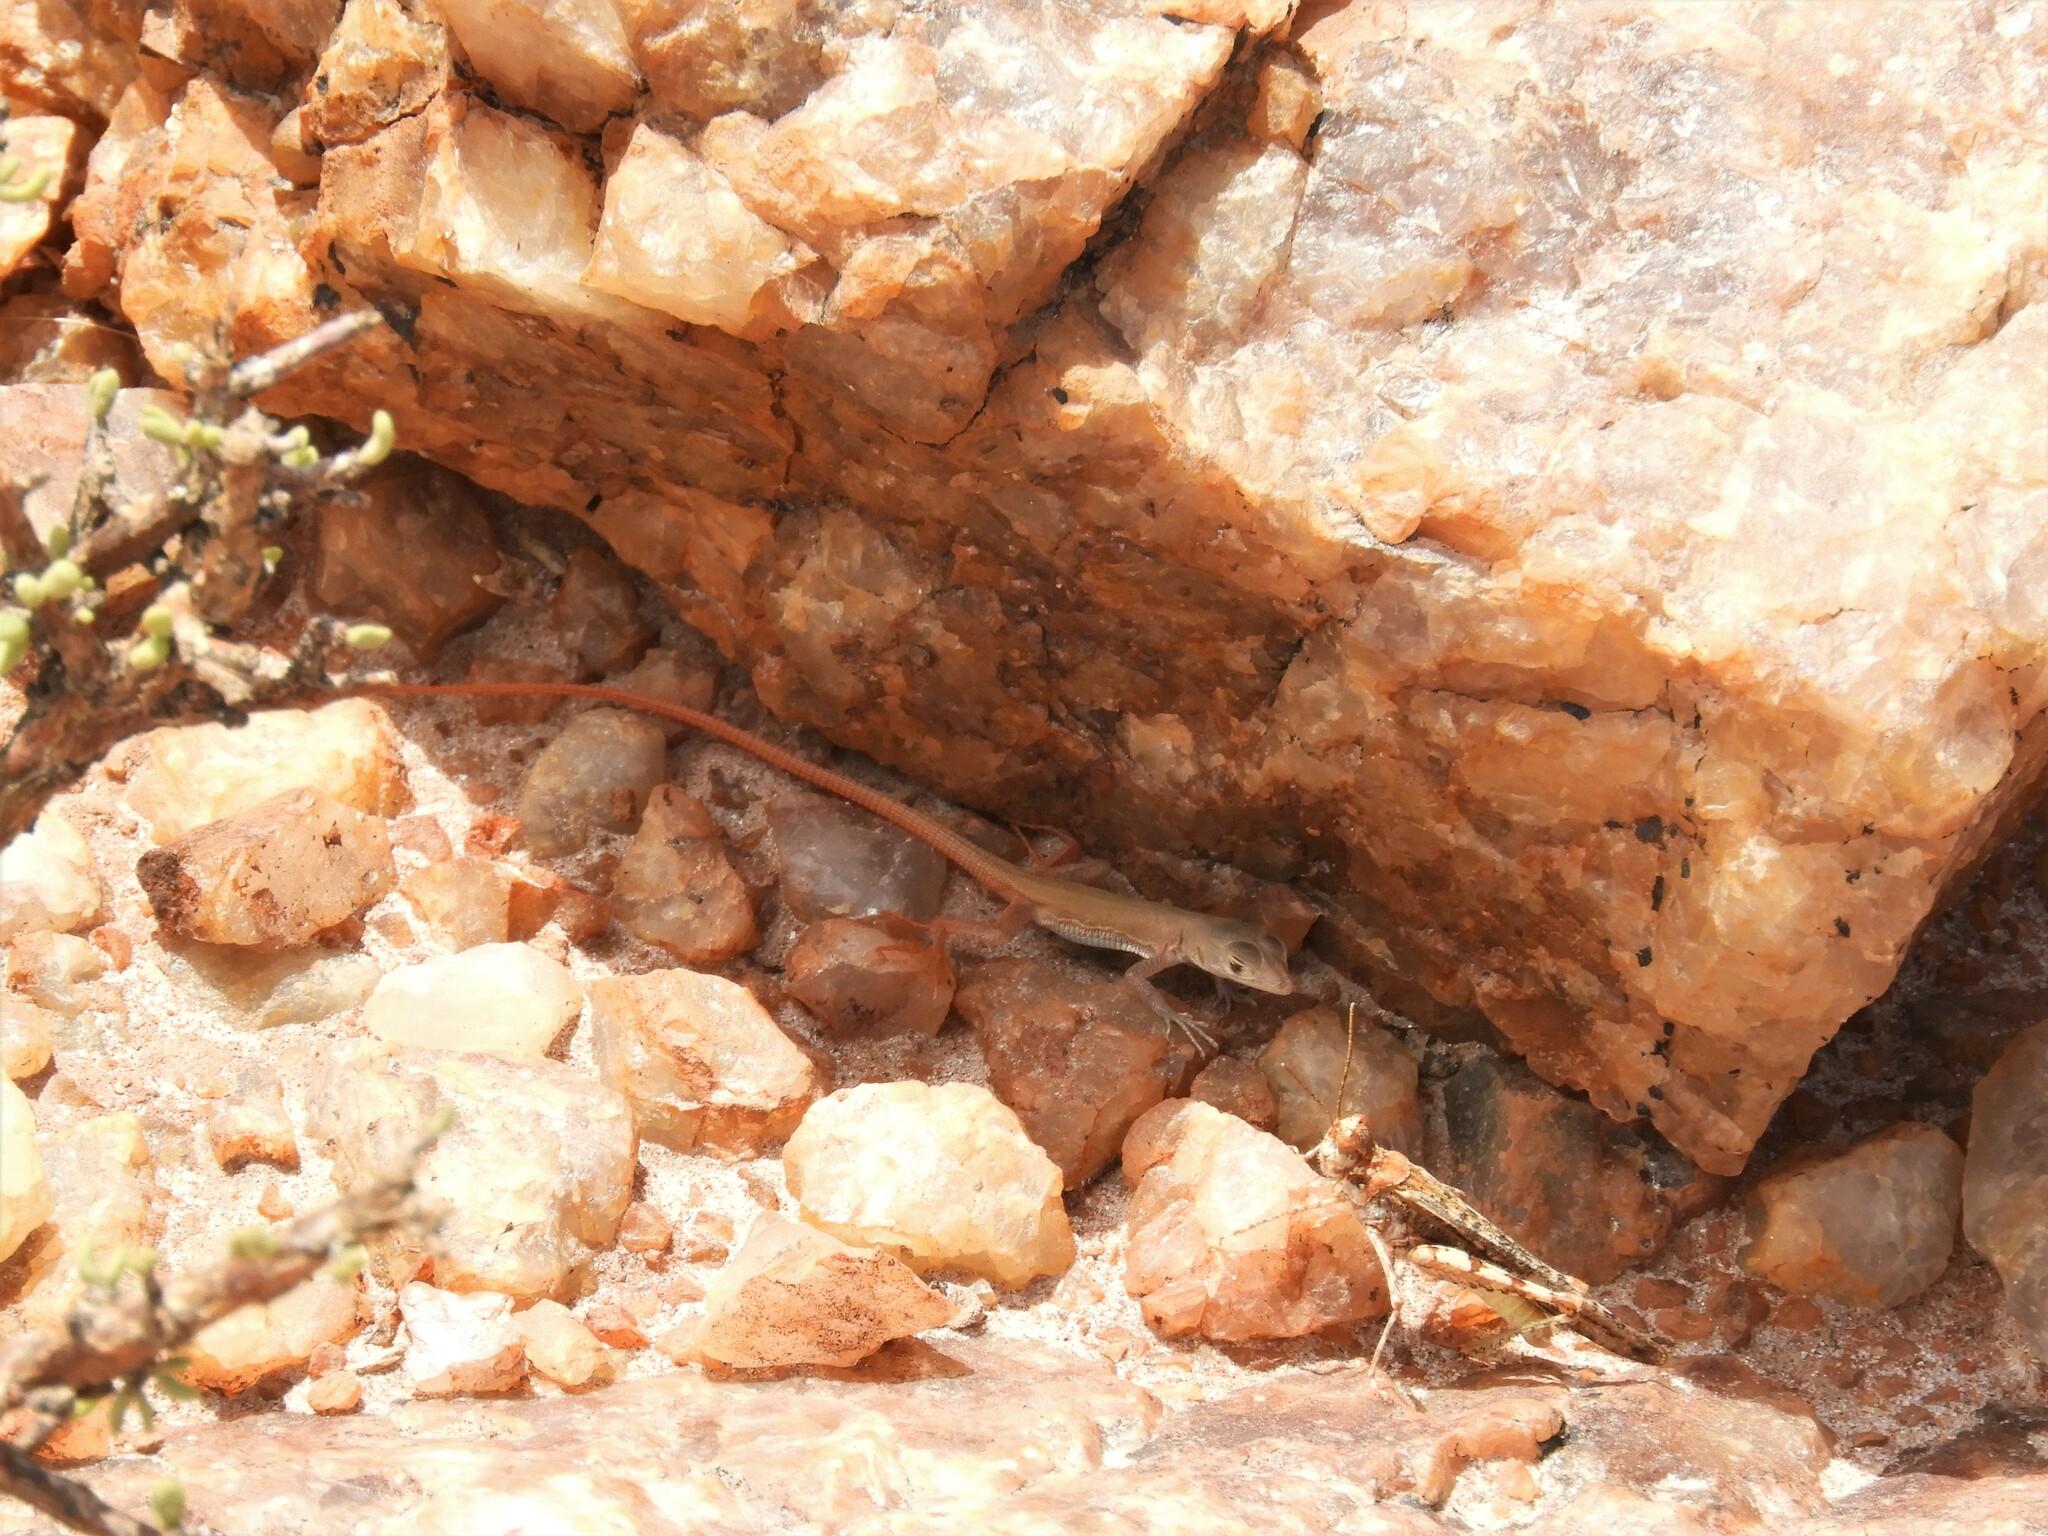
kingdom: Animalia
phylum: Chordata
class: Squamata
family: Lacertidae
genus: Pedioplanis
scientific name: Pedioplanis inornata
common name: Plain sand lizard
